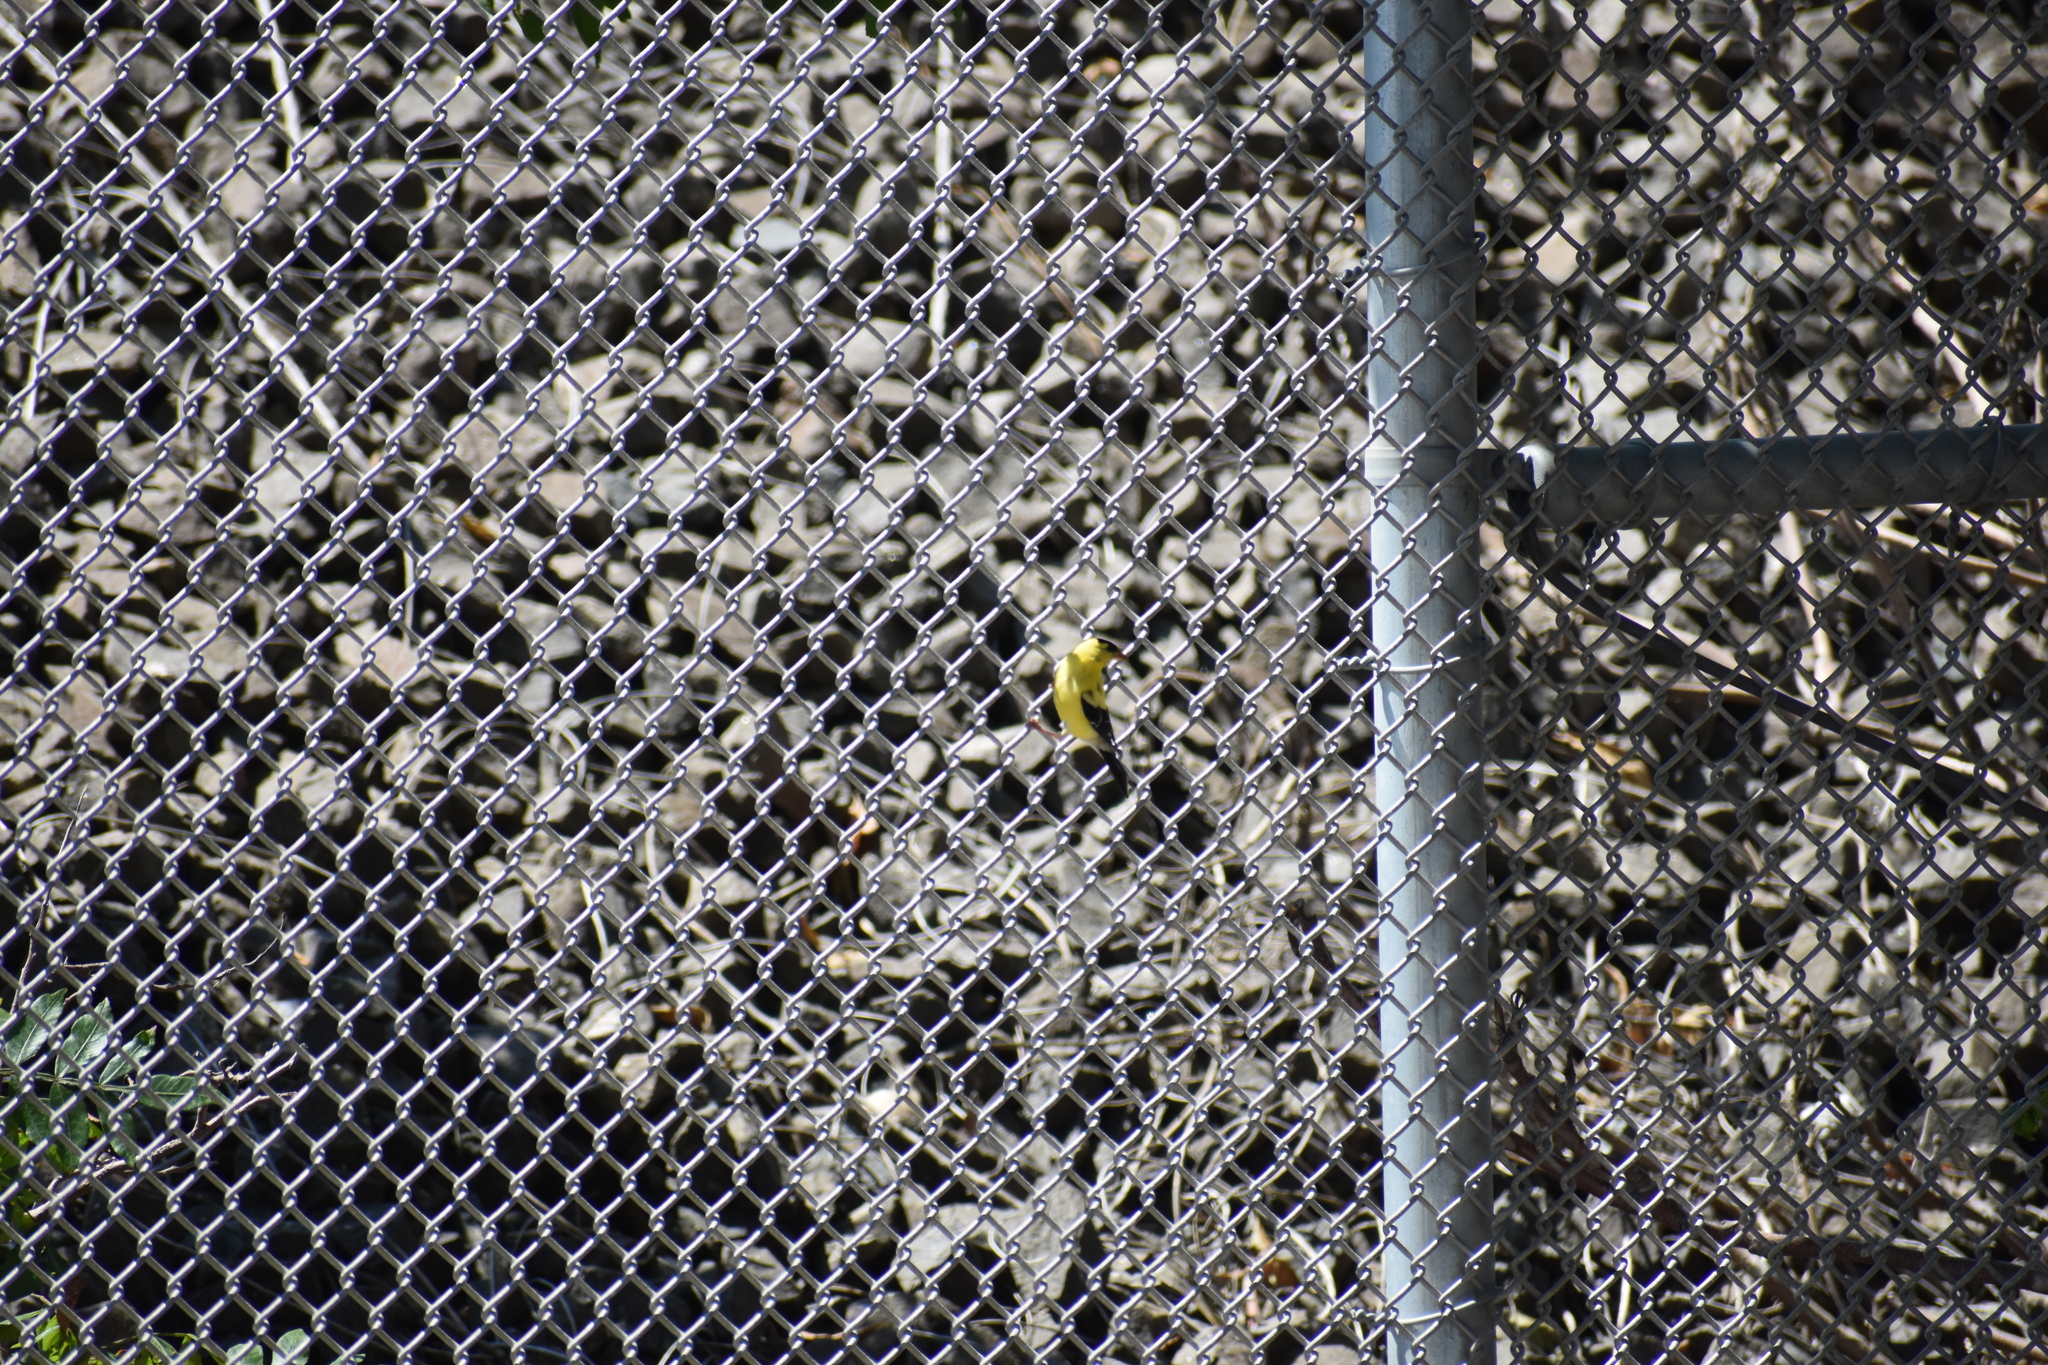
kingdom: Animalia
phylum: Chordata
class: Aves
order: Passeriformes
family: Fringillidae
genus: Spinus
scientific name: Spinus tristis
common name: American goldfinch
